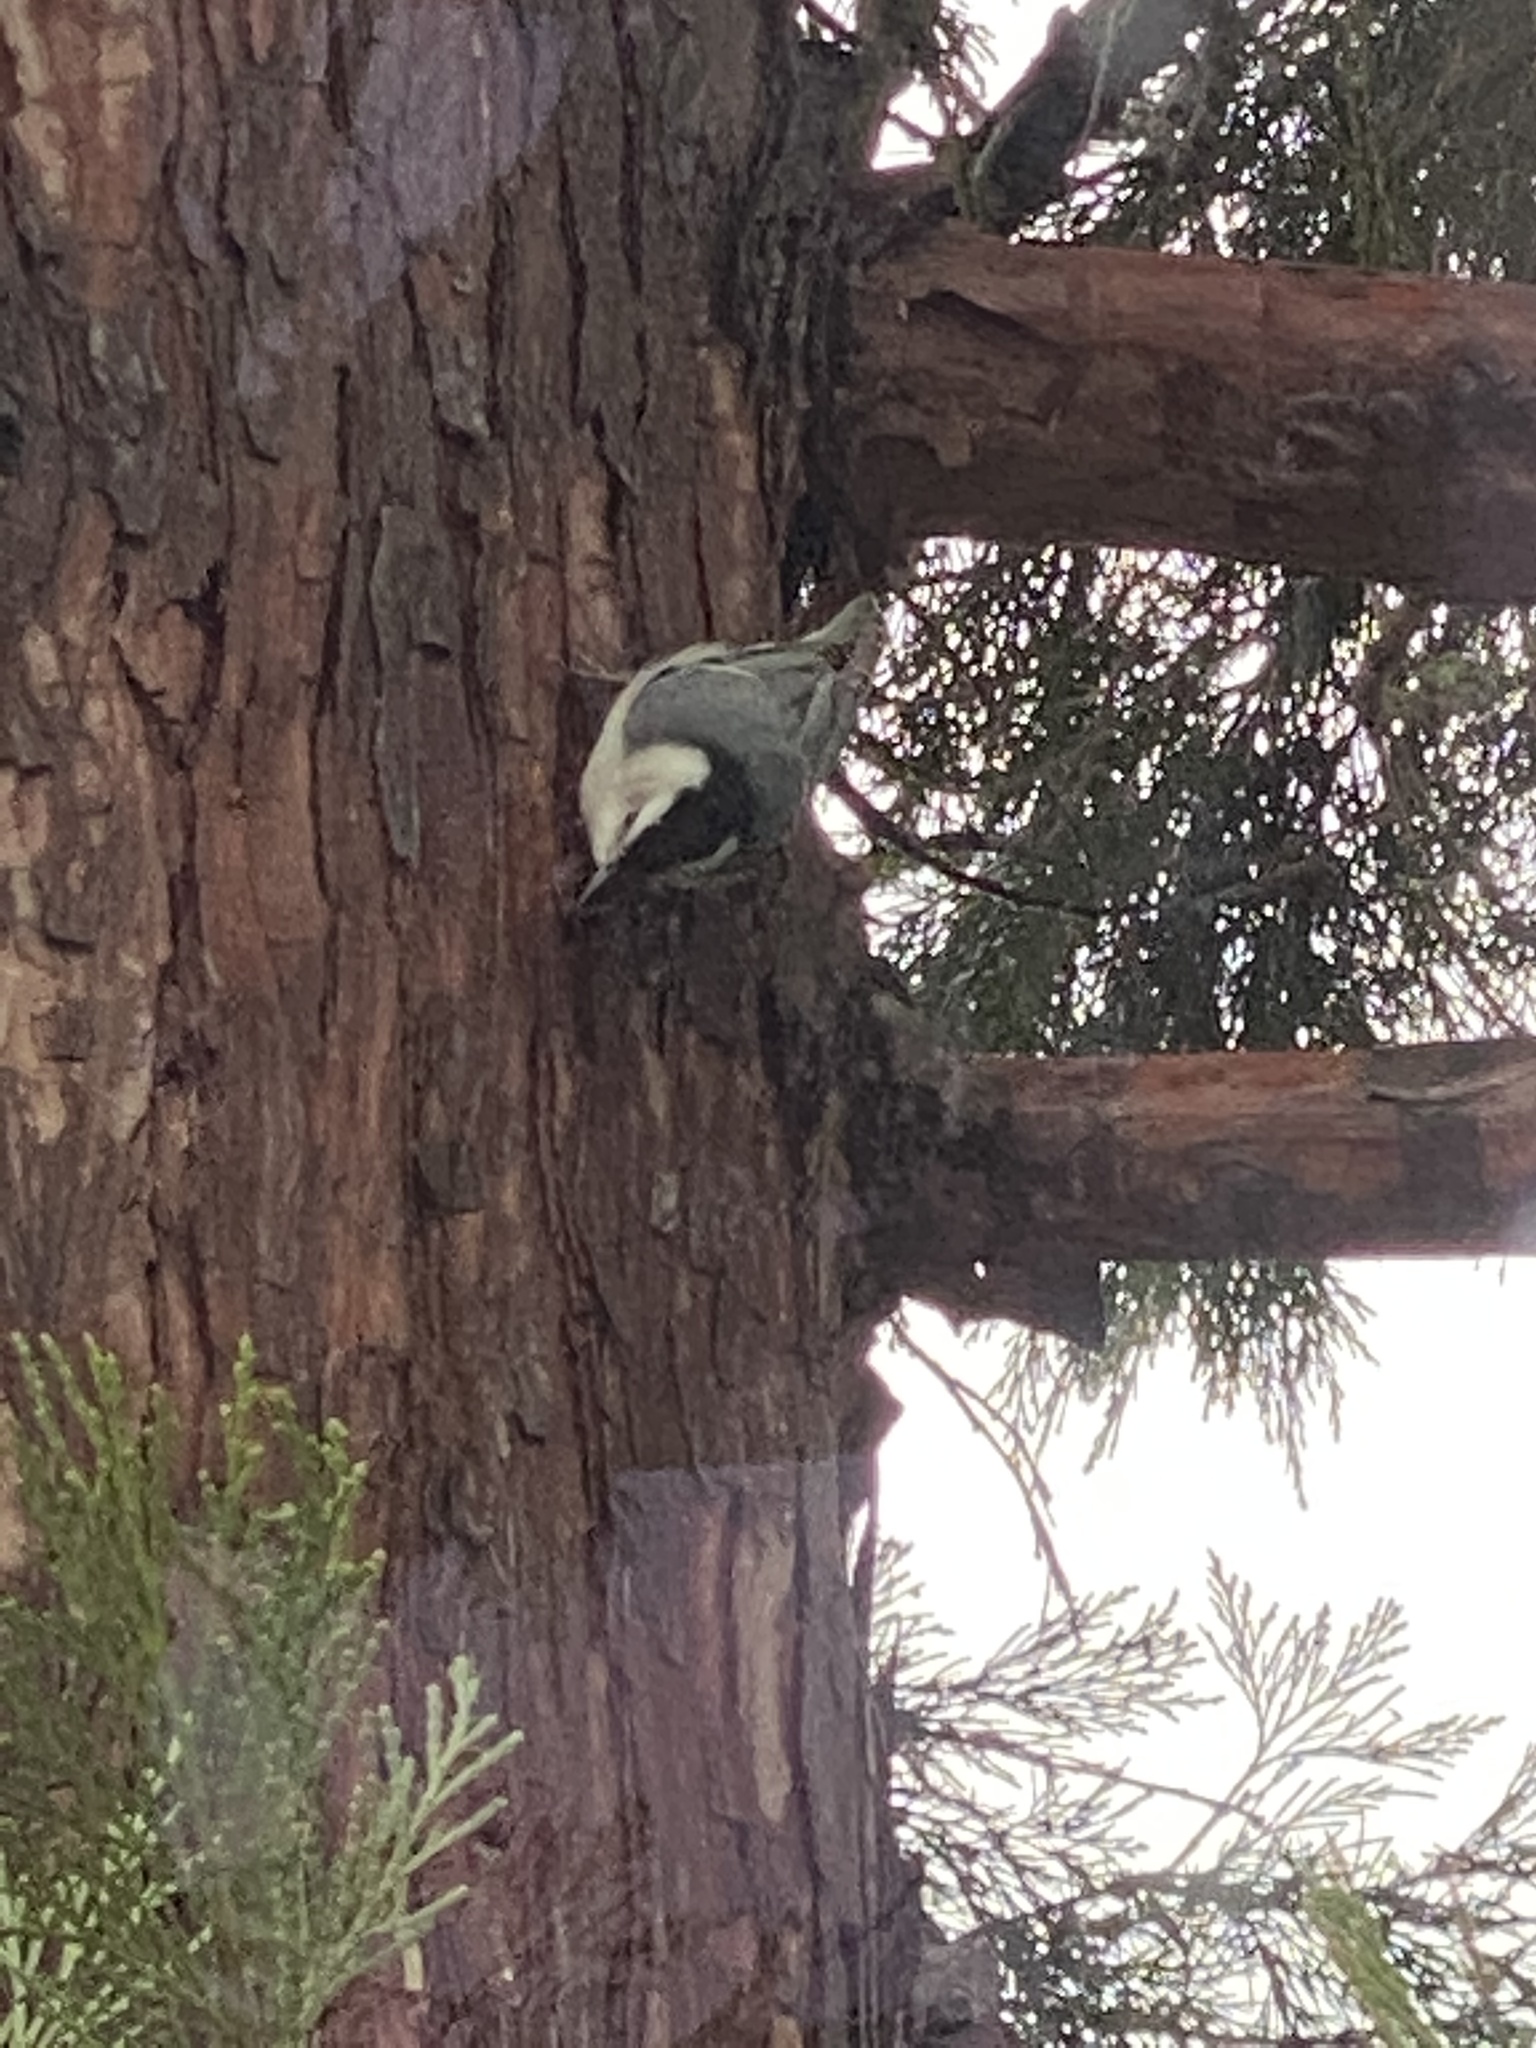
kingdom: Animalia
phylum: Chordata
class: Aves
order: Passeriformes
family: Sittidae
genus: Sitta
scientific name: Sitta carolinensis
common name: White-breasted nuthatch
